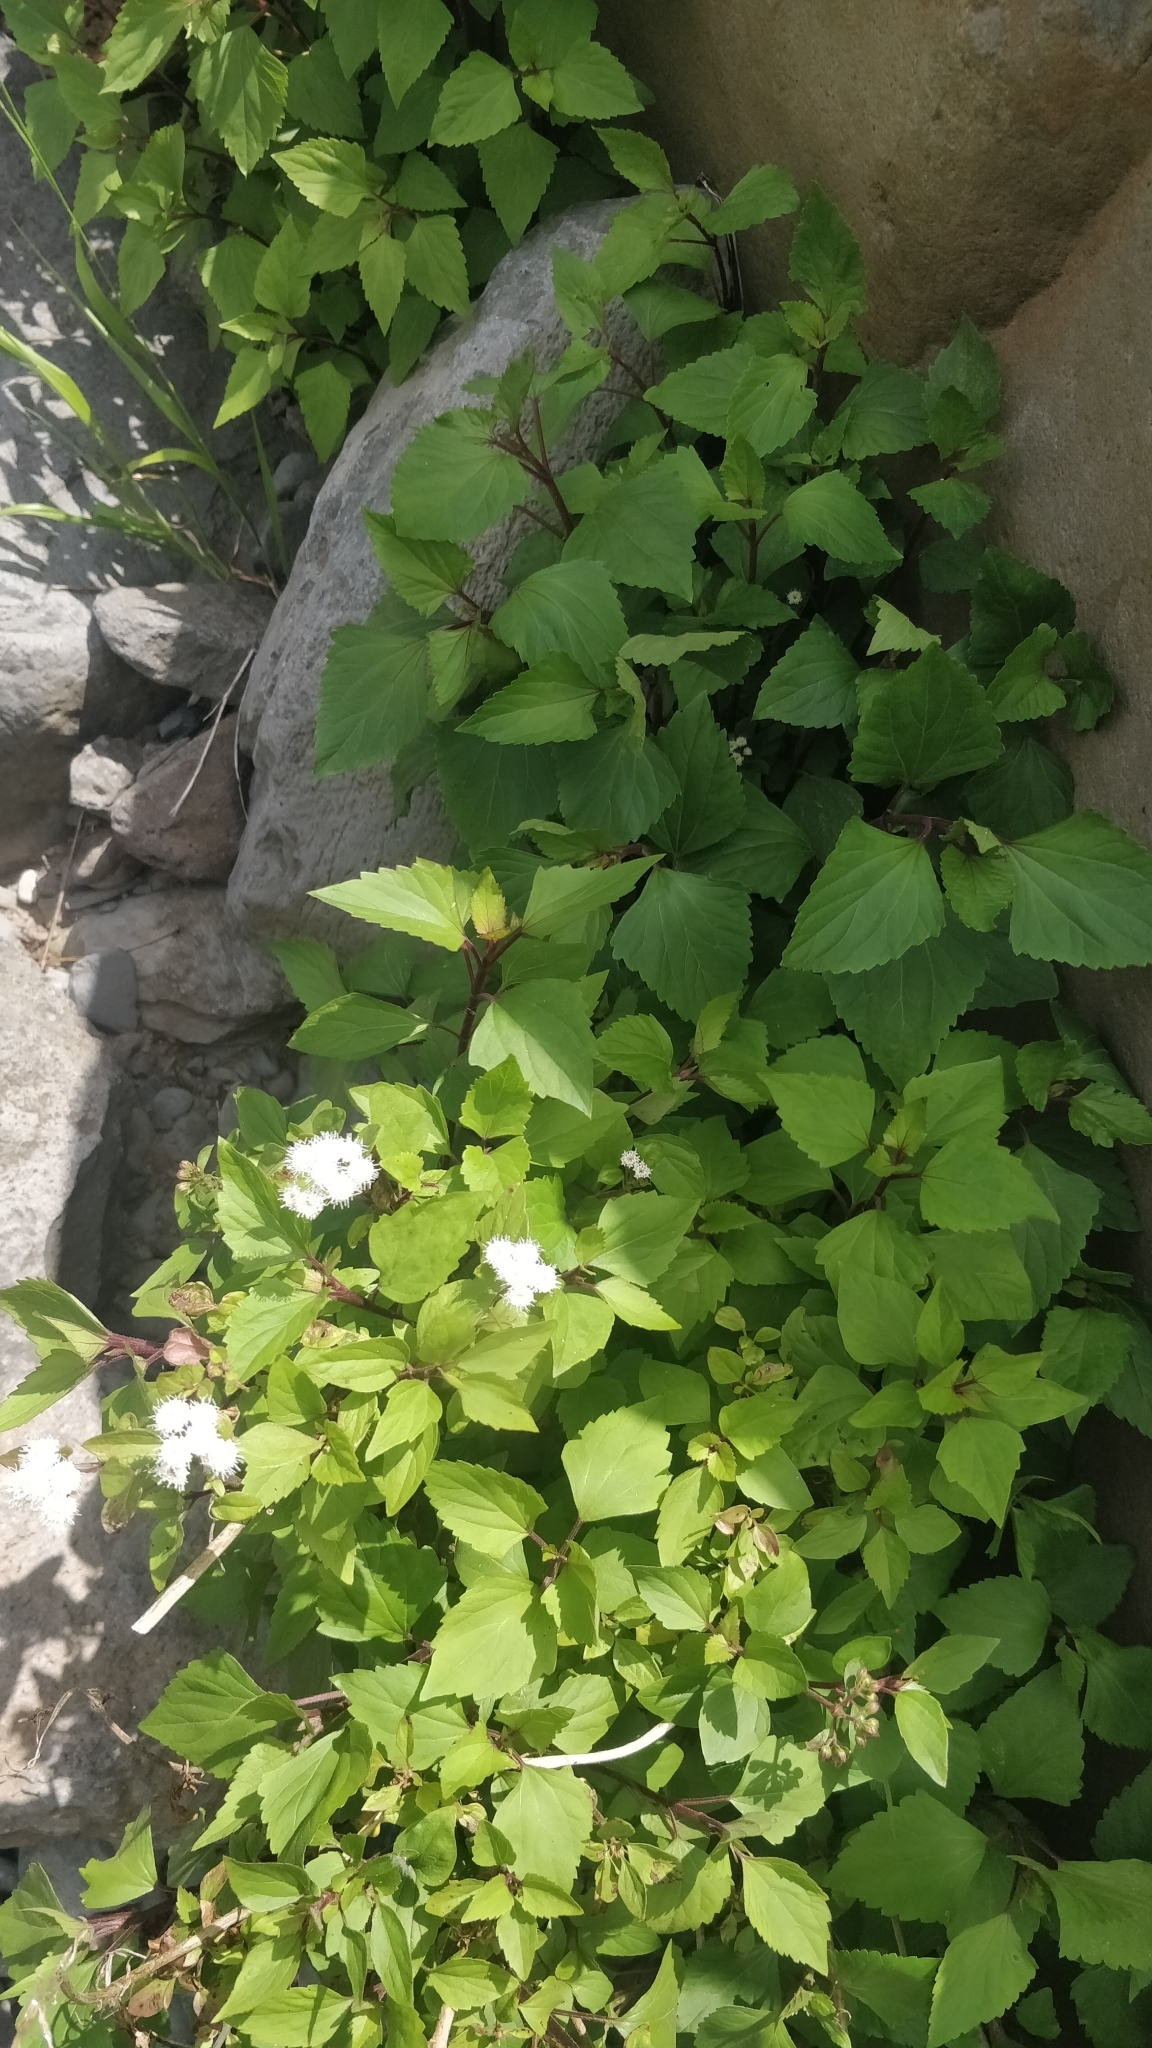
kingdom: Plantae
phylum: Tracheophyta
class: Magnoliopsida
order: Asterales
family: Asteraceae
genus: Ageratina
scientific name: Ageratina adenophora
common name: Sticky snakeroot
